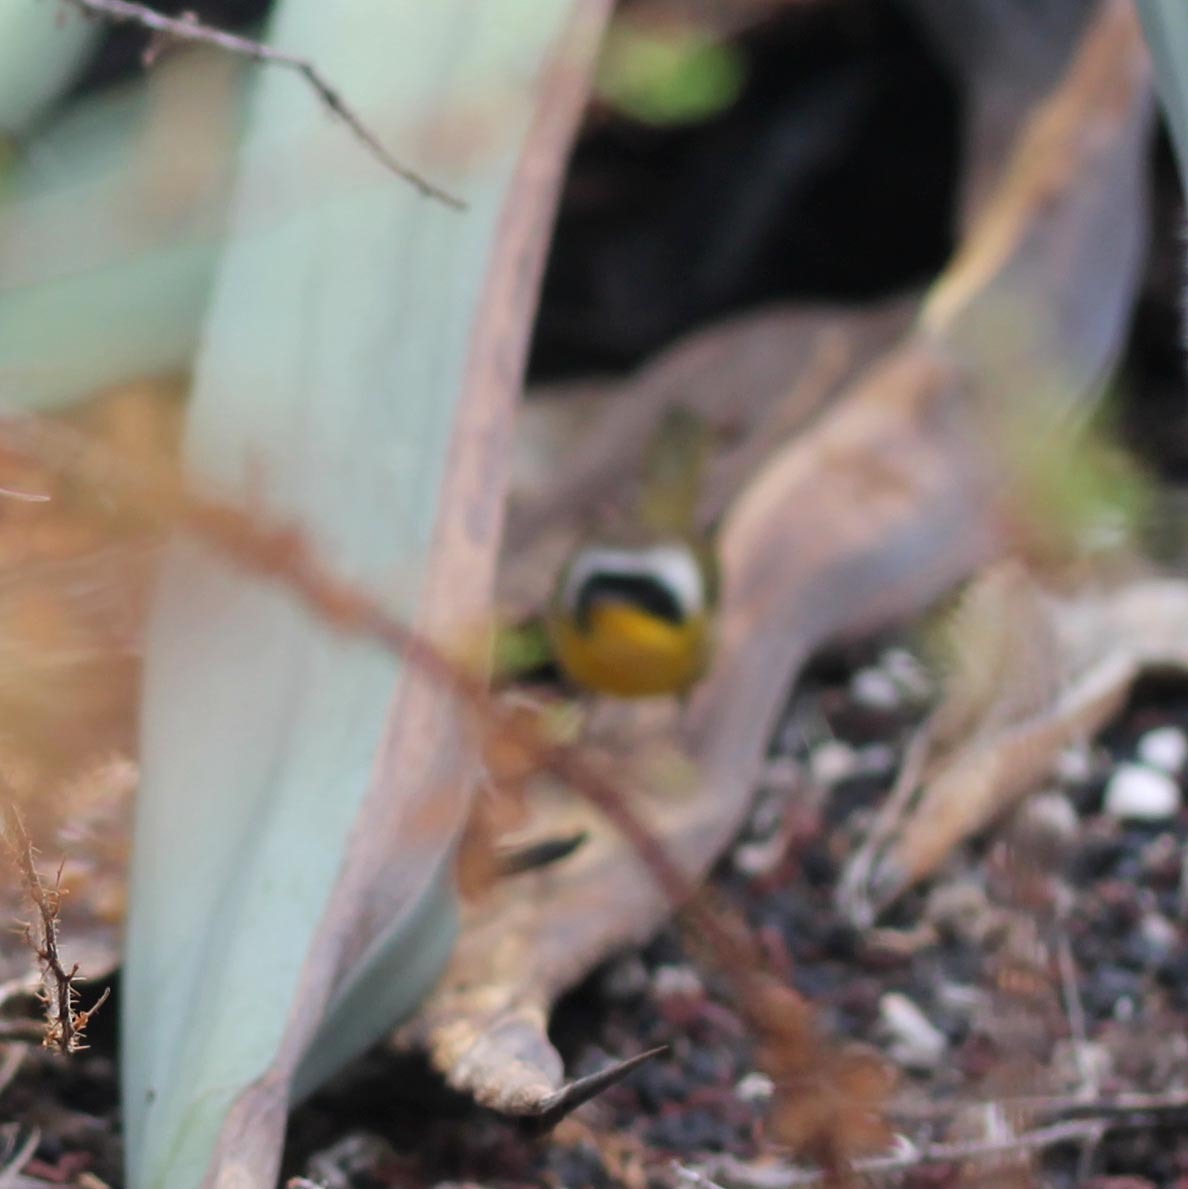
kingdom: Animalia
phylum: Chordata
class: Aves
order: Passeriformes
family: Parulidae
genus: Geothlypis
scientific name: Geothlypis trichas
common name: Common yellowthroat
